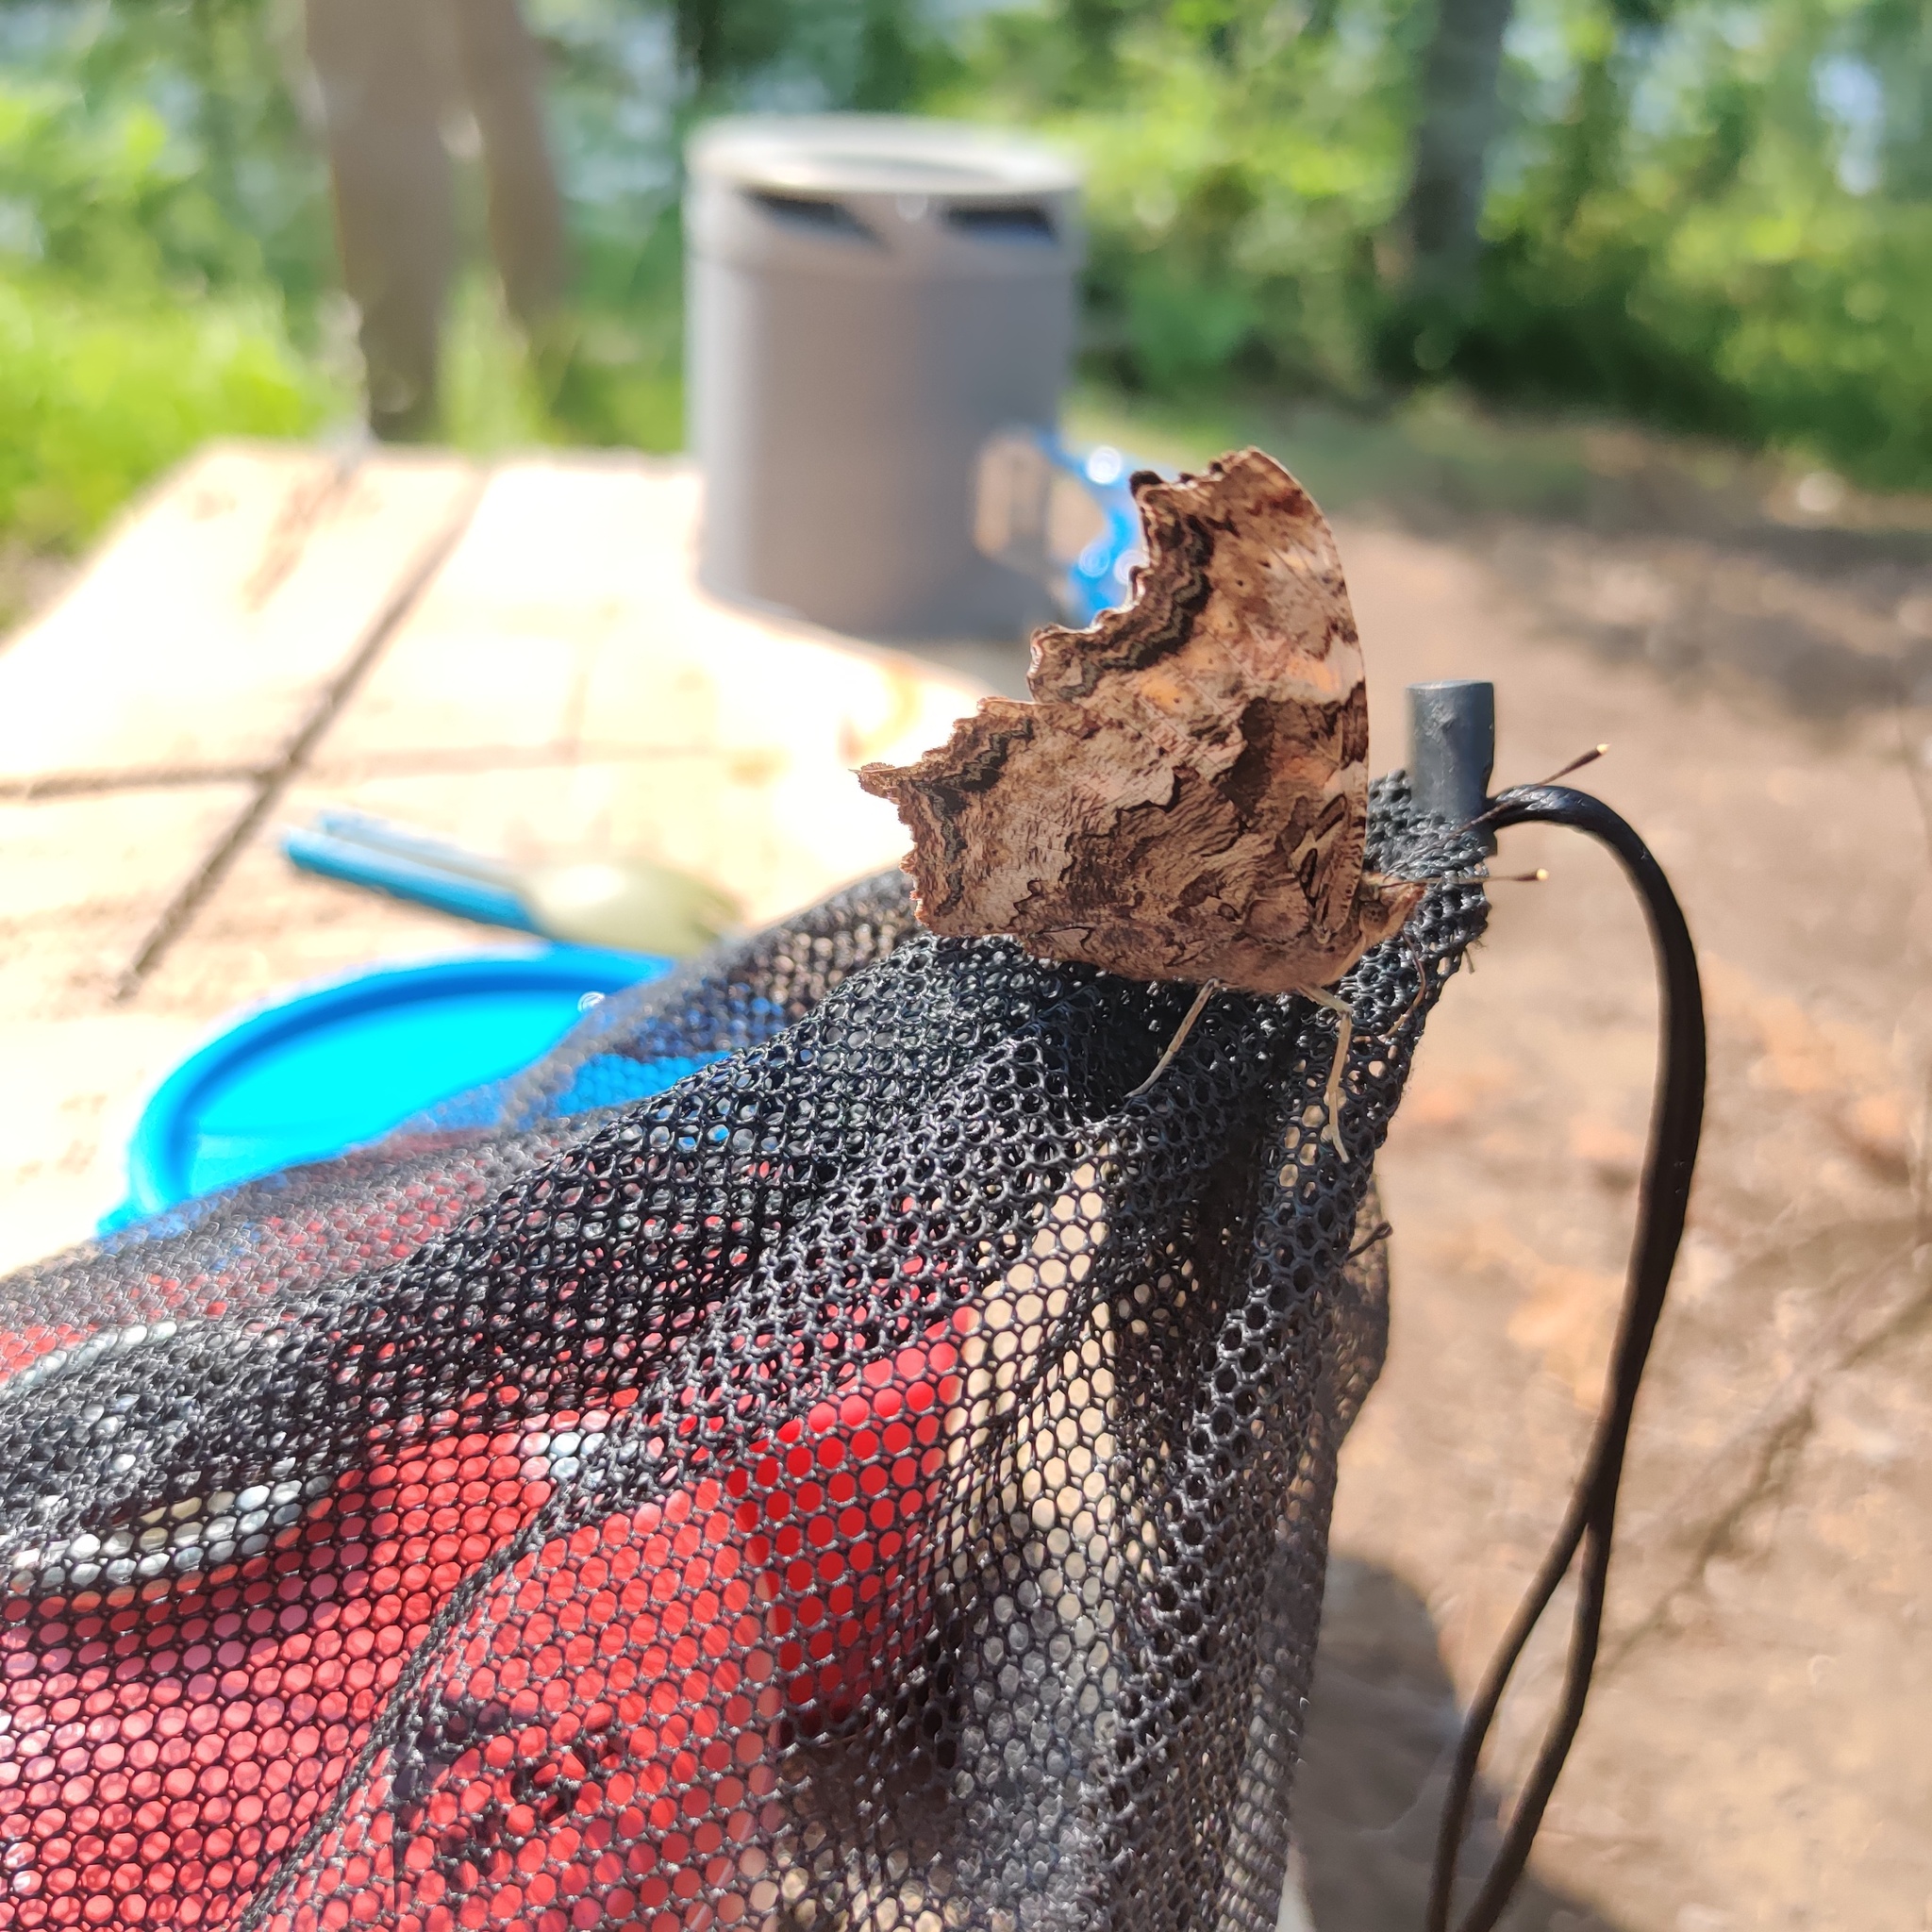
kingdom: Animalia
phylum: Arthropoda
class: Insecta
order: Lepidoptera
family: Nymphalidae
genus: Polygonia
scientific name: Polygonia vaualbum
